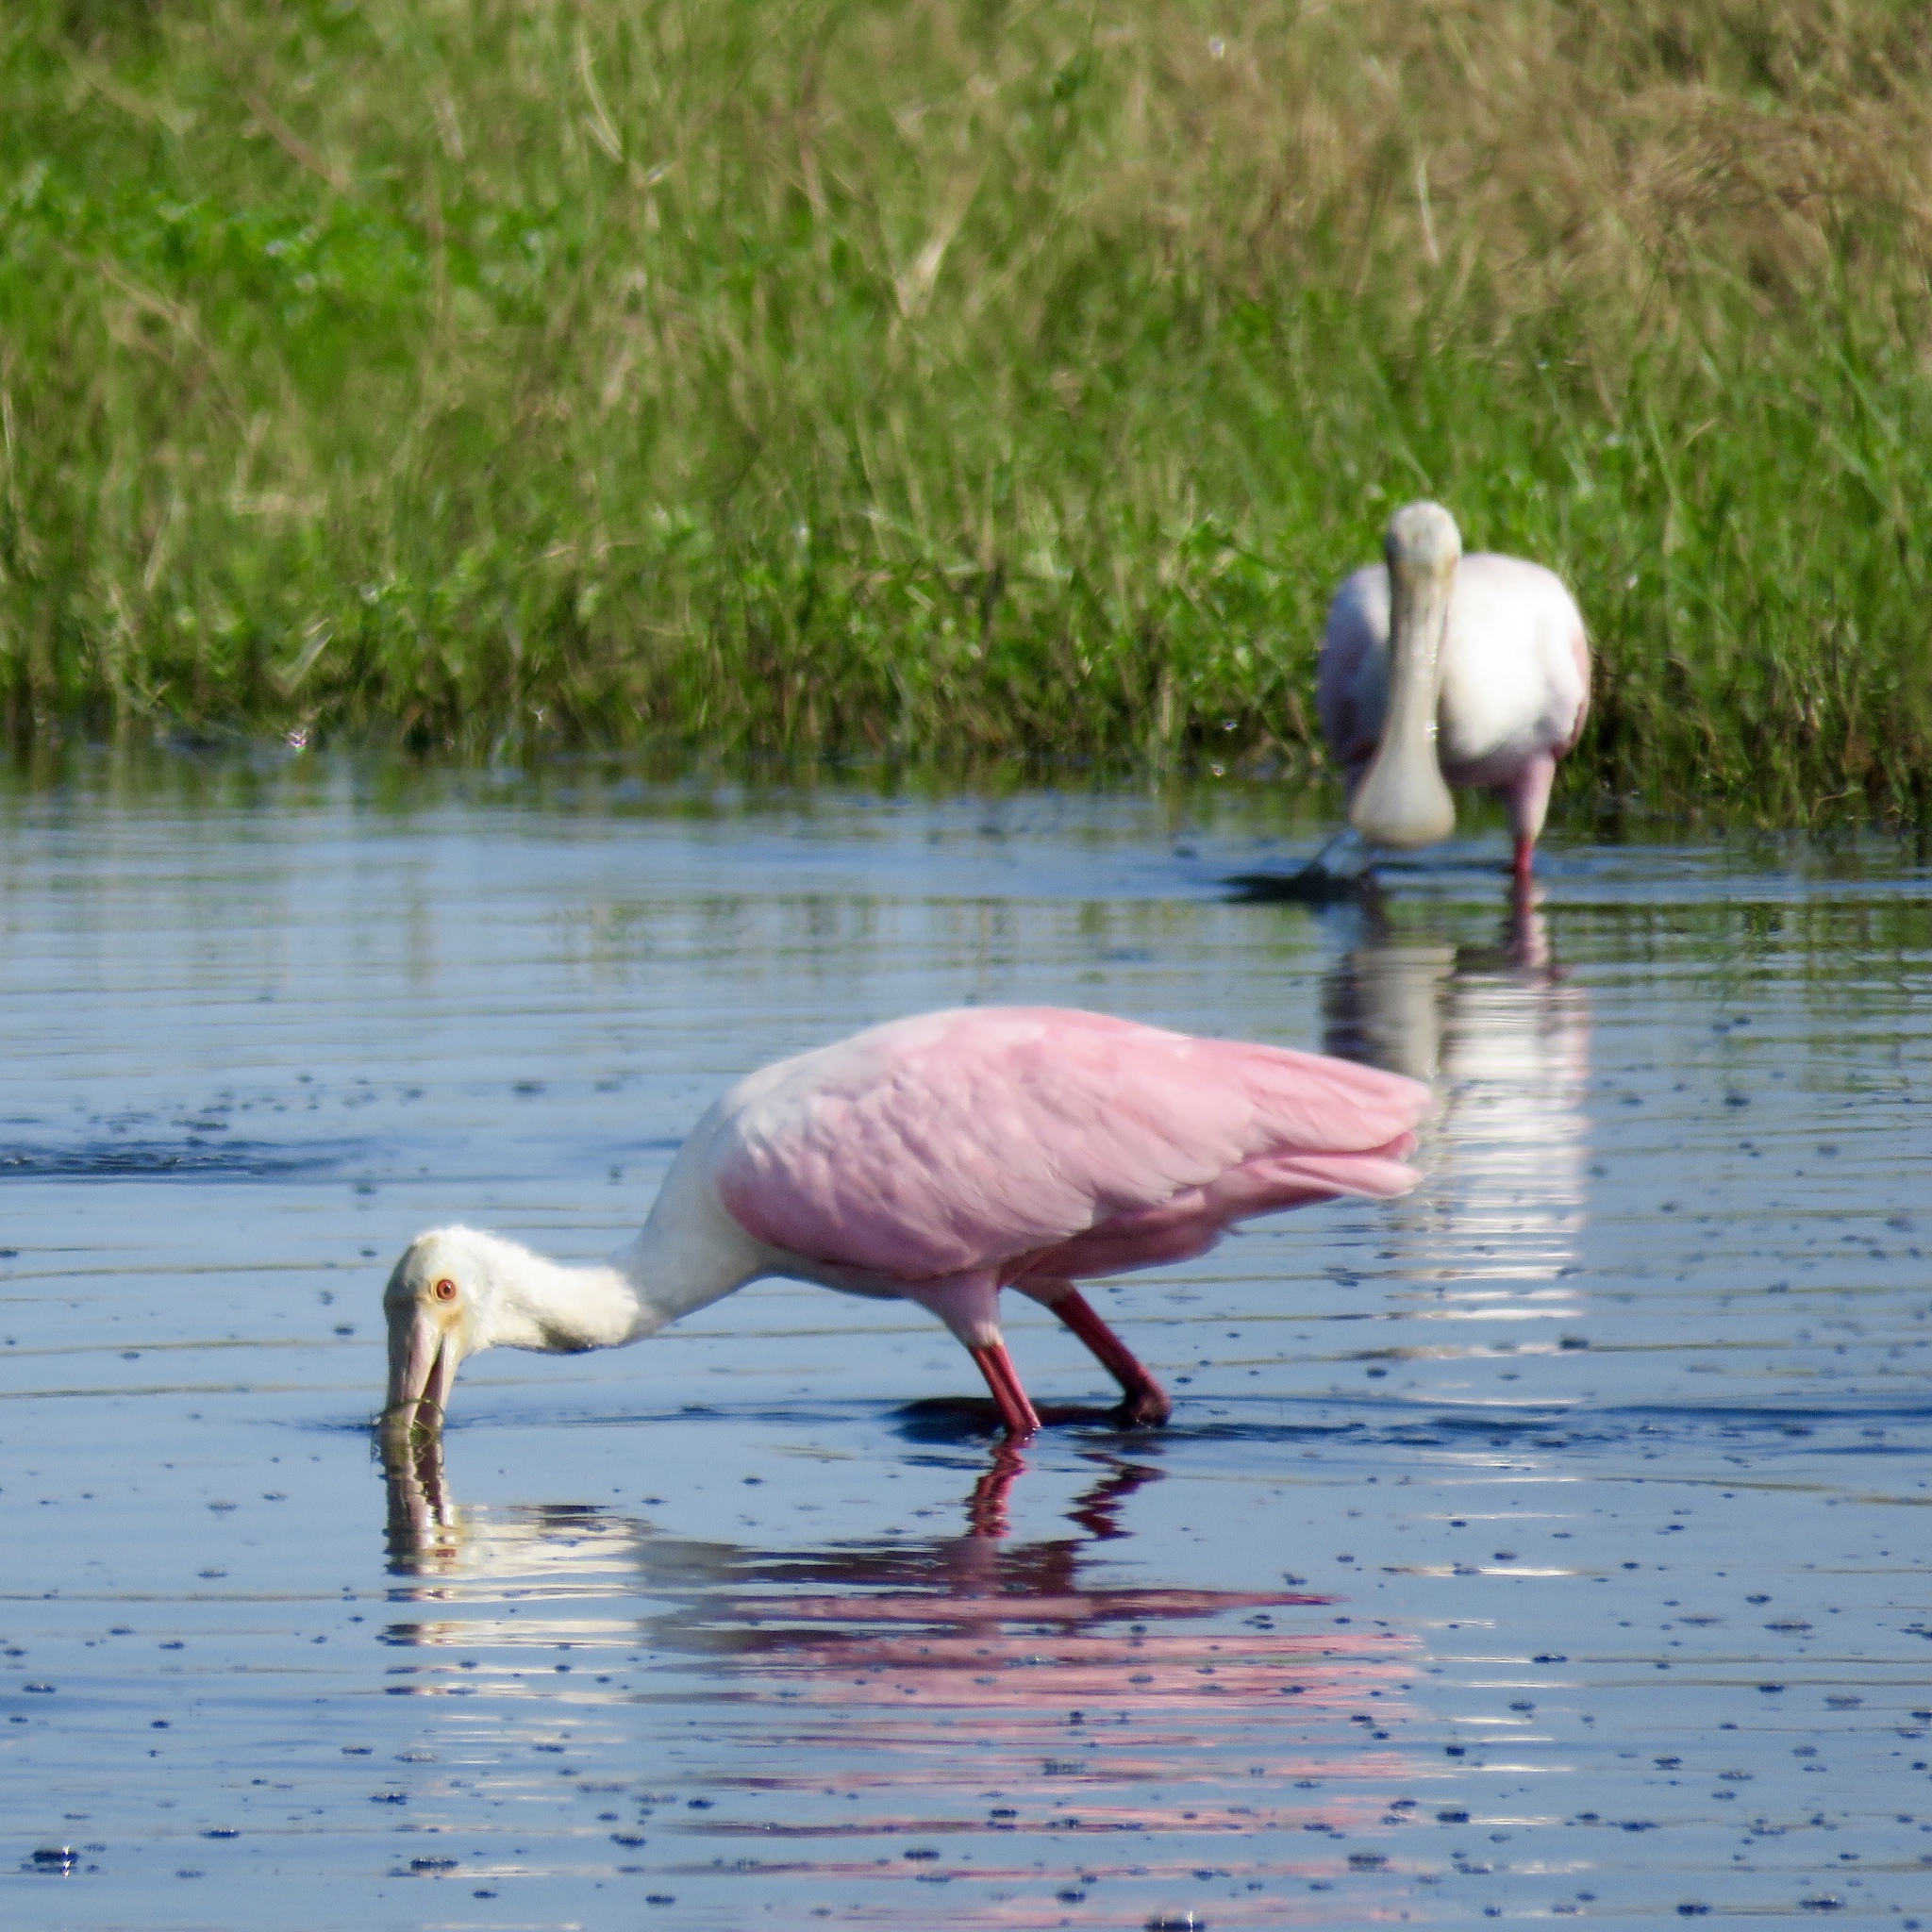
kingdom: Animalia
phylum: Chordata
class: Aves
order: Pelecaniformes
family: Threskiornithidae
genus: Platalea
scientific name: Platalea ajaja
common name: Roseate spoonbill
